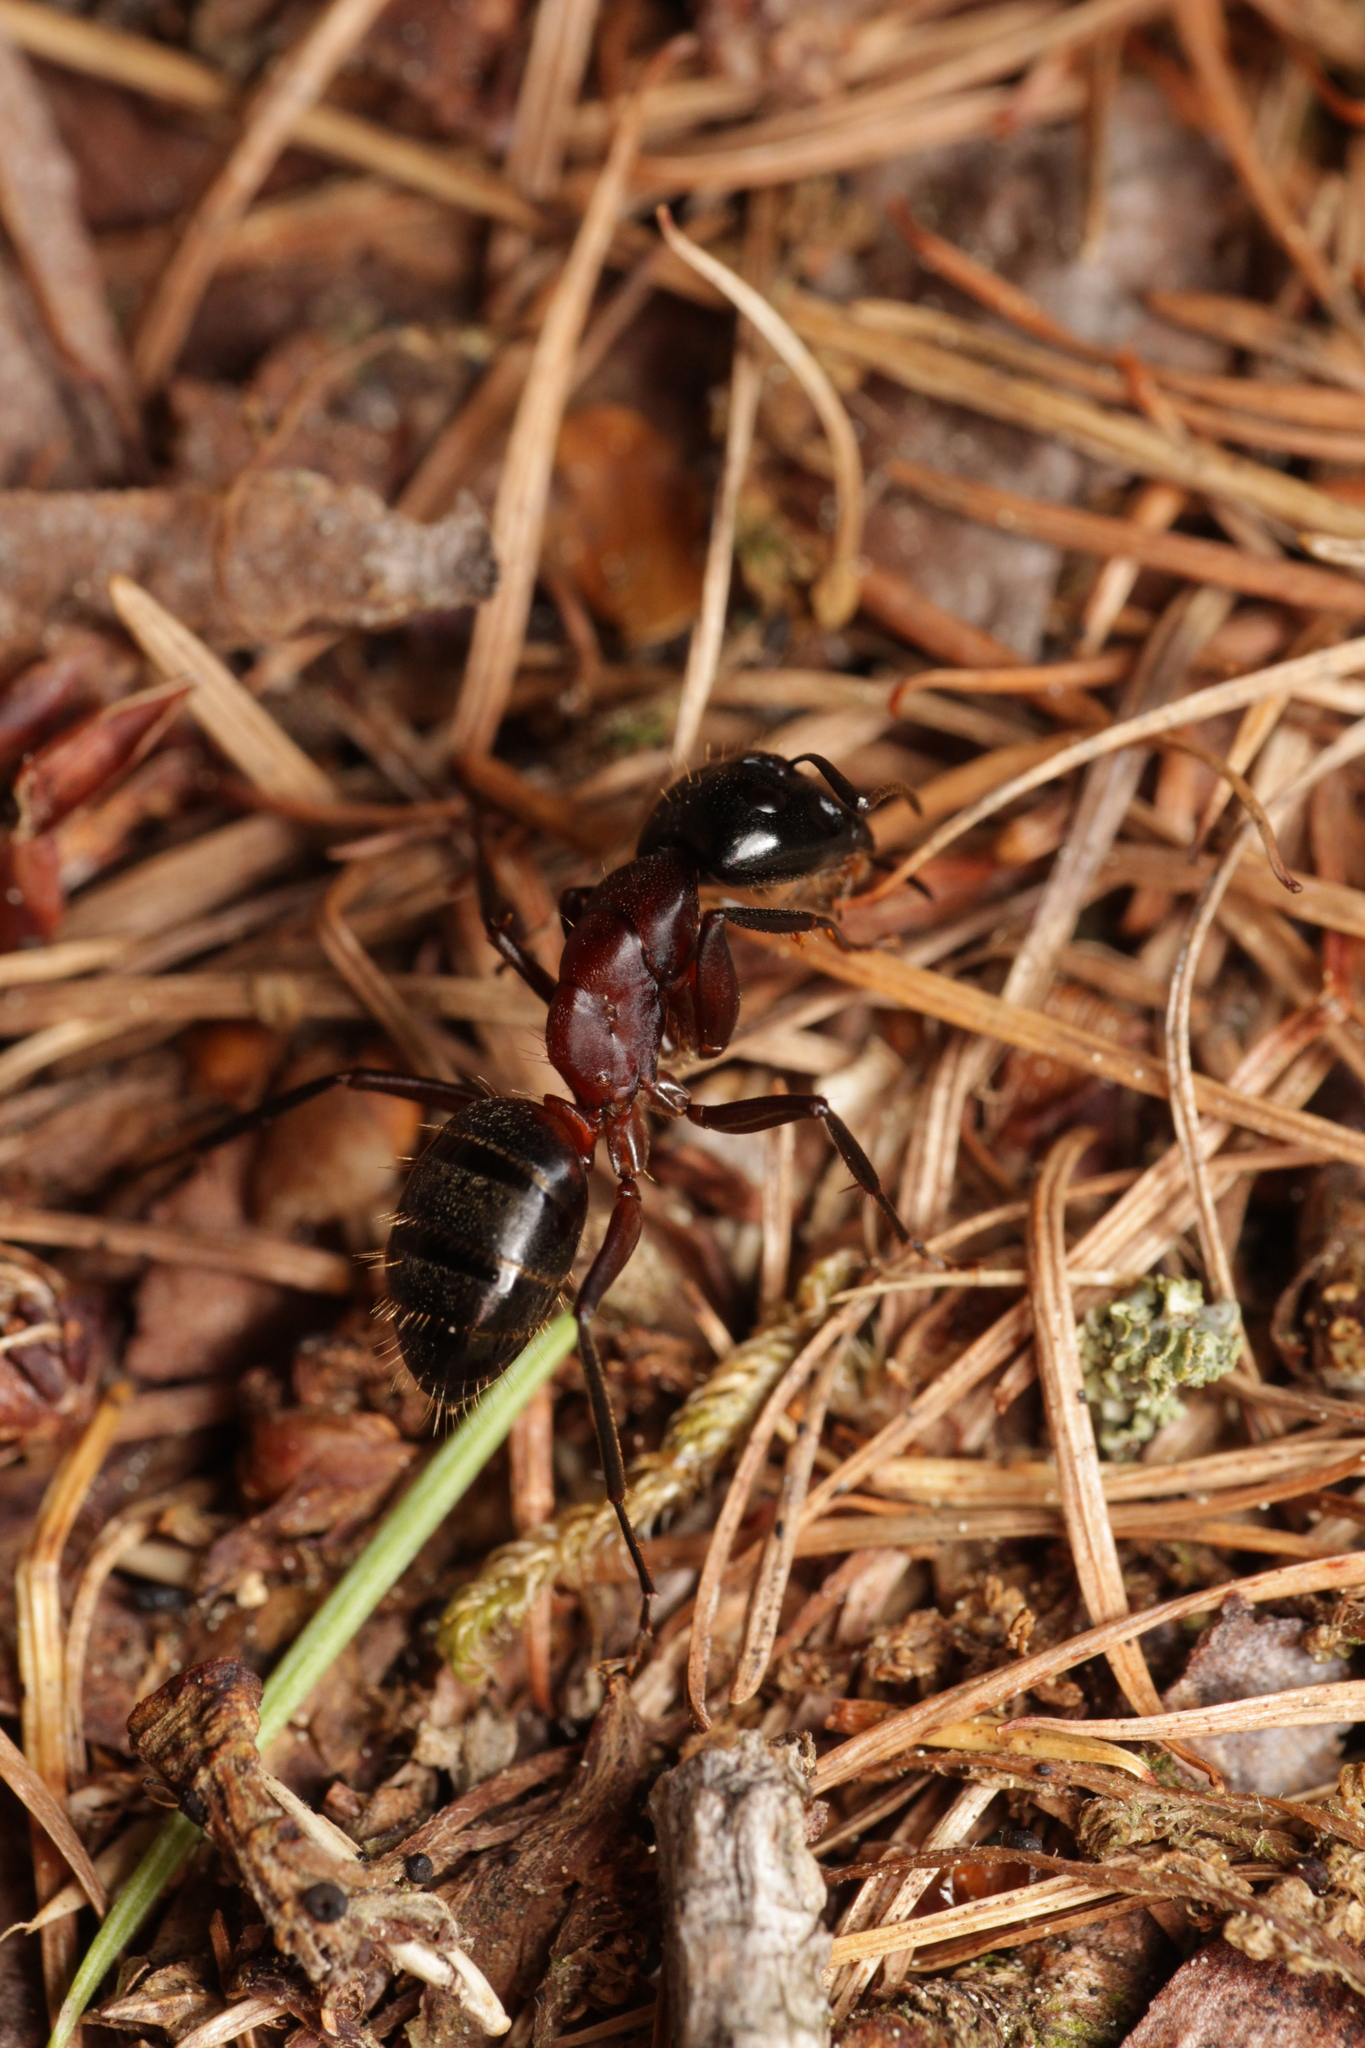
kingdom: Animalia
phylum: Arthropoda
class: Insecta
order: Hymenoptera
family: Formicidae
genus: Camponotus
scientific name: Camponotus ligniperdus
